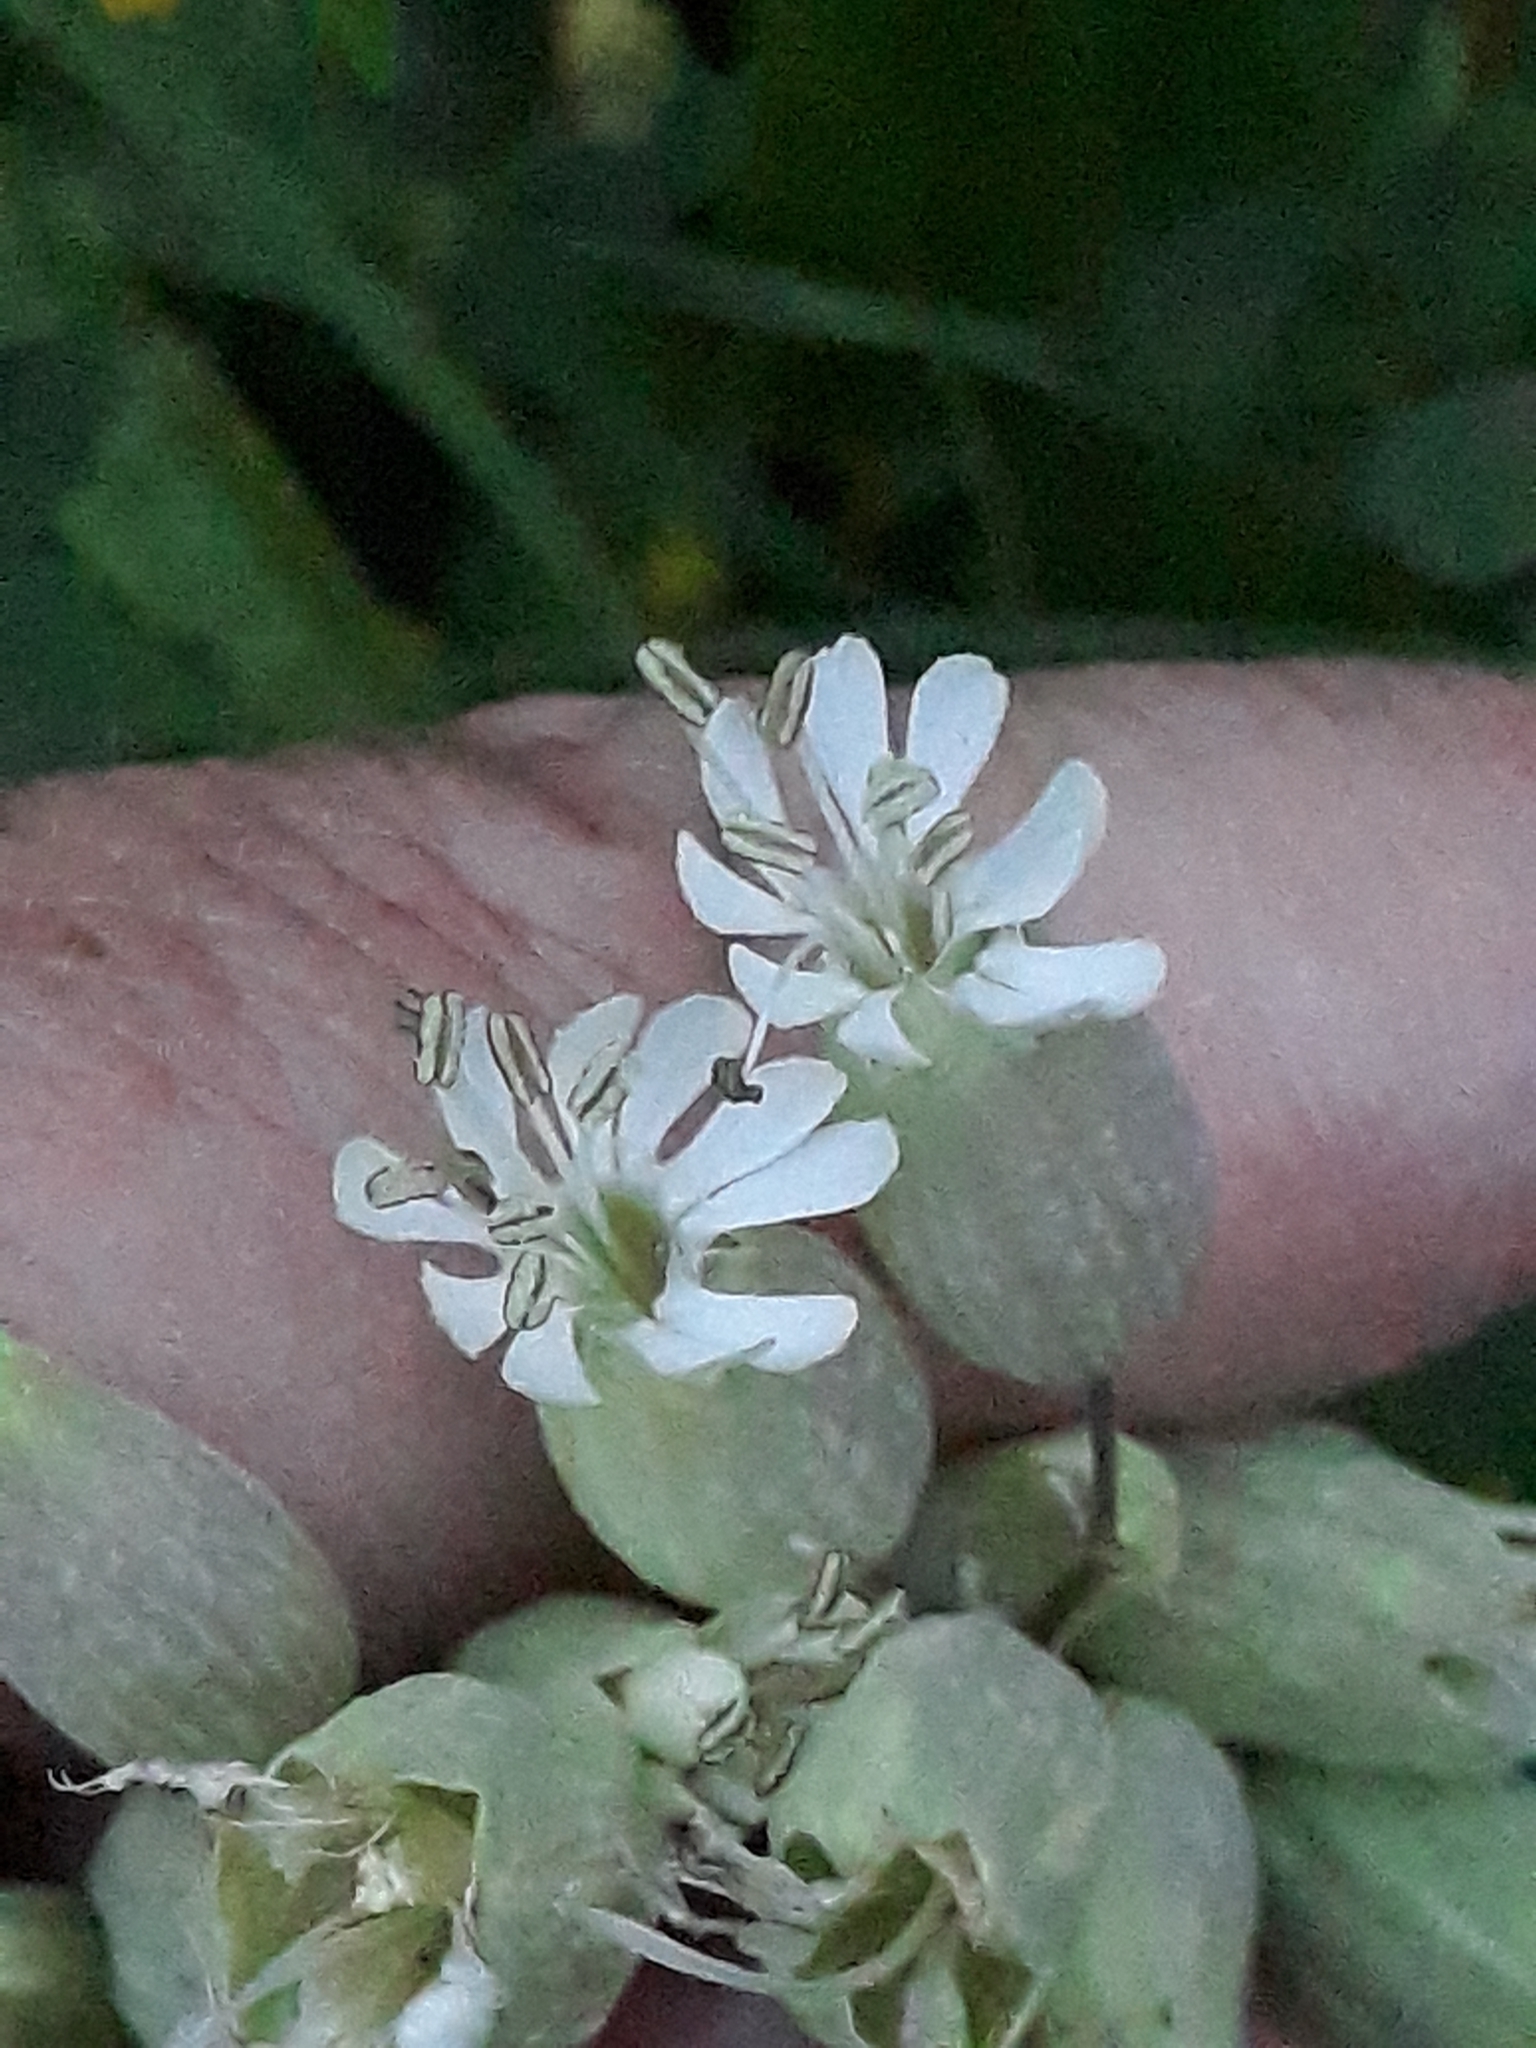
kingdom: Plantae
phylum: Tracheophyta
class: Magnoliopsida
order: Caryophyllales
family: Caryophyllaceae
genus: Silene
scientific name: Silene vulgaris
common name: Bladder campion
